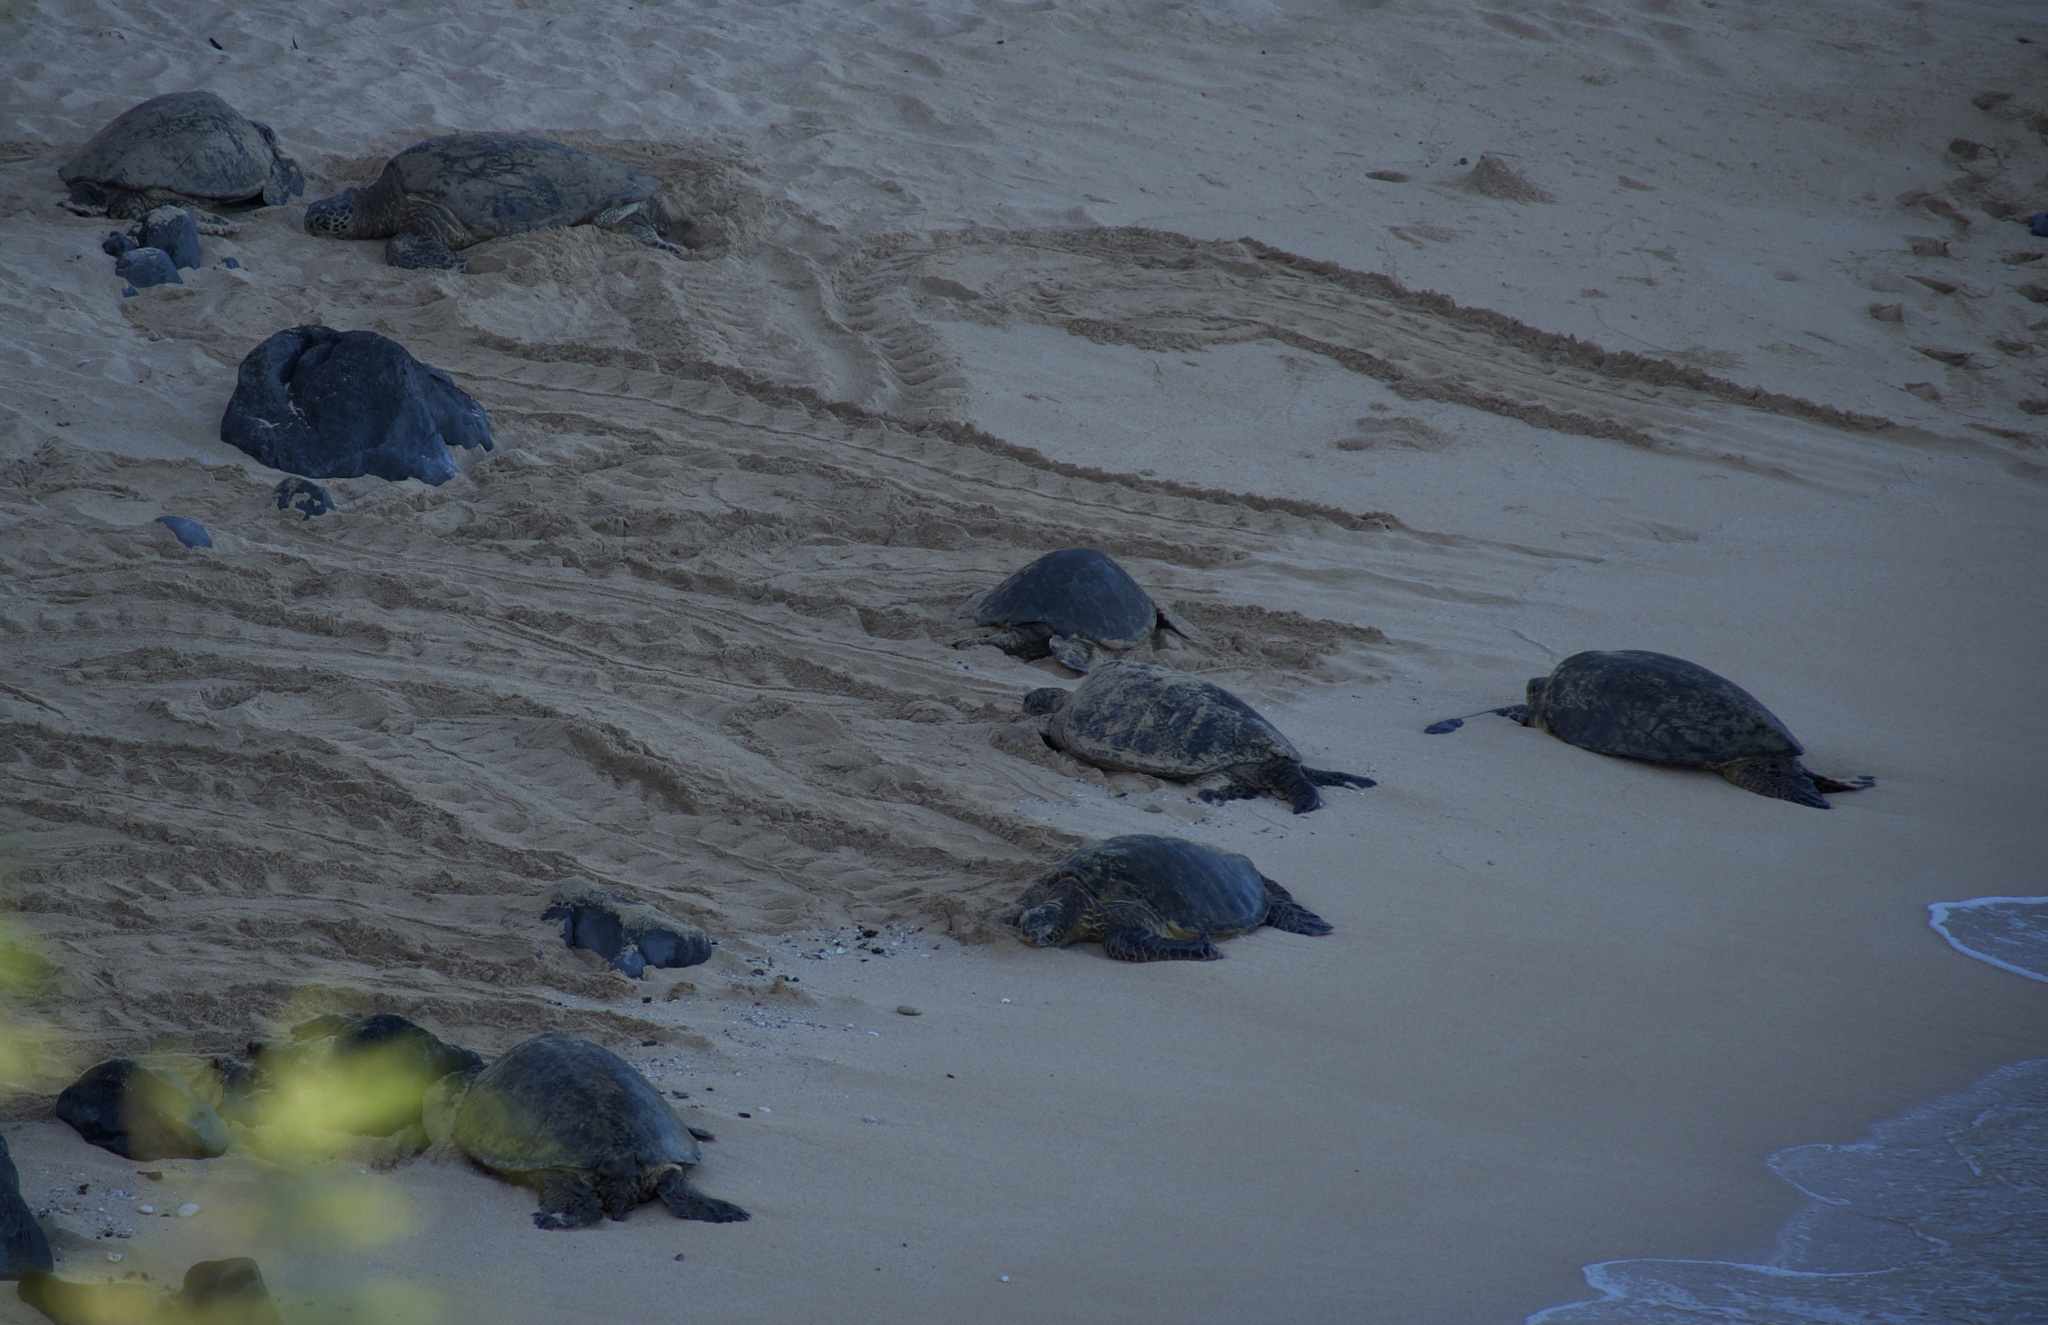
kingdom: Animalia
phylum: Chordata
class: Testudines
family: Cheloniidae
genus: Chelonia
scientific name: Chelonia mydas
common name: Green turtle
